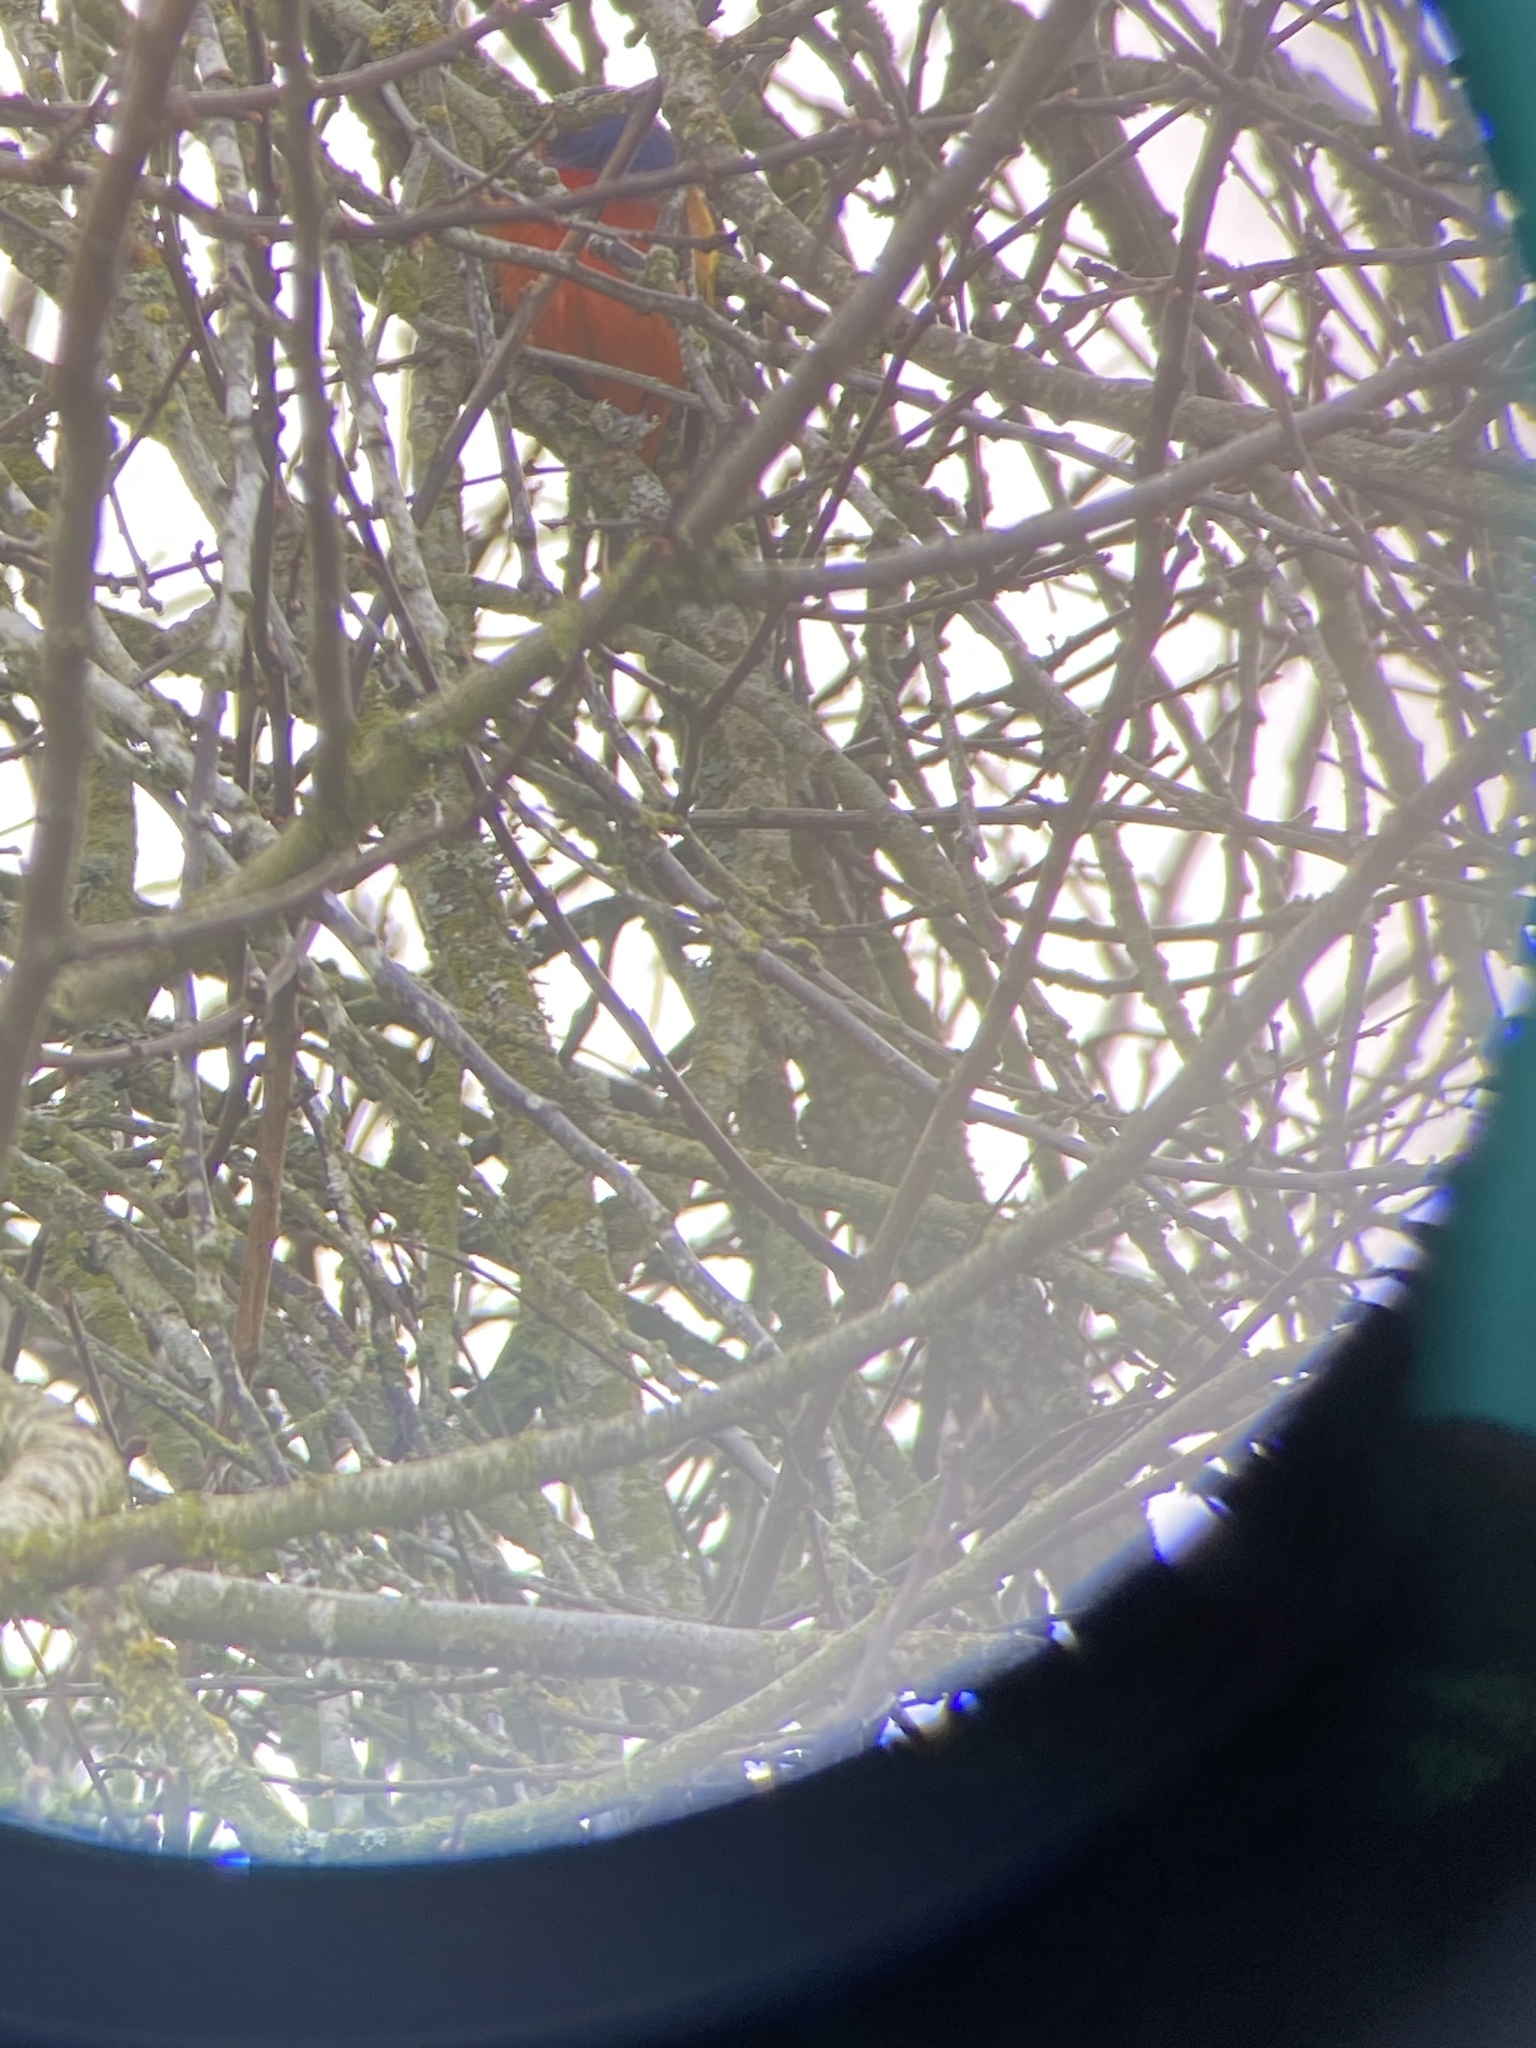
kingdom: Animalia
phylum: Chordata
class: Aves
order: Passeriformes
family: Cardinalidae
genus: Passerina
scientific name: Passerina ciris
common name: Painted bunting
